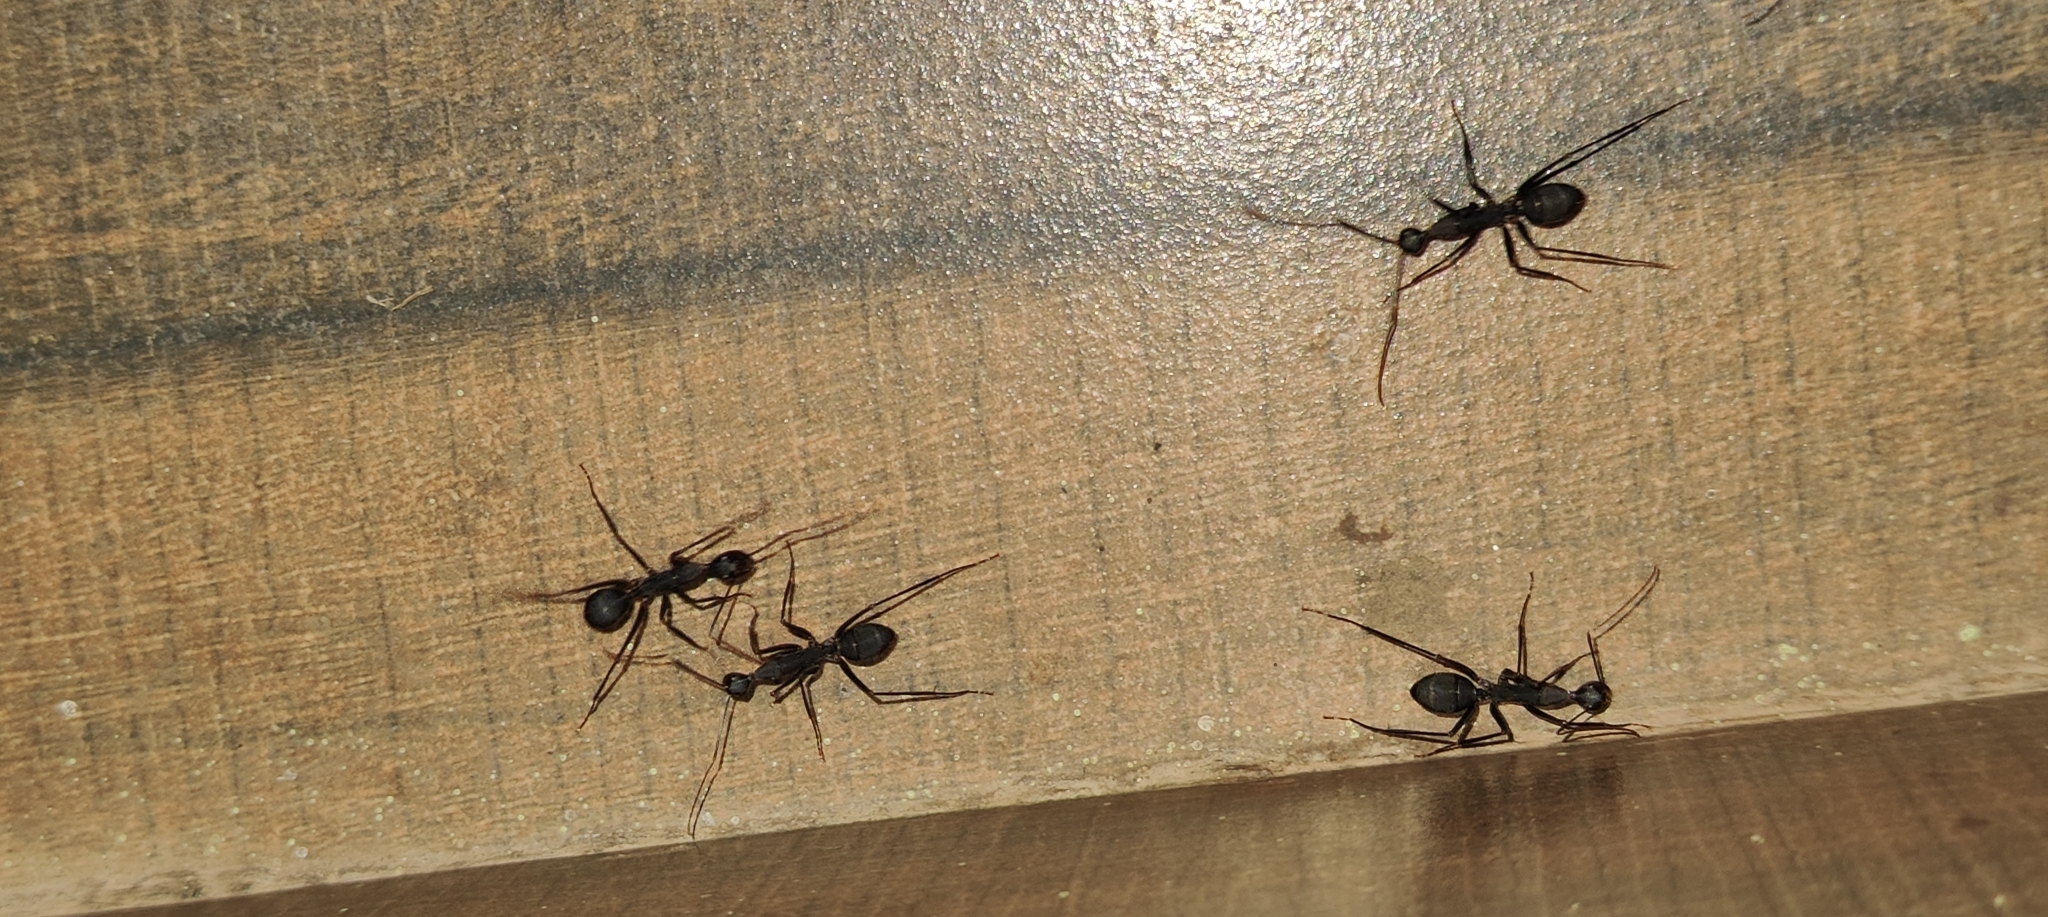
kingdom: Animalia
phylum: Arthropoda
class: Insecta
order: Hymenoptera
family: Formicidae
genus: Camponotus
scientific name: Camponotus angusticollis
